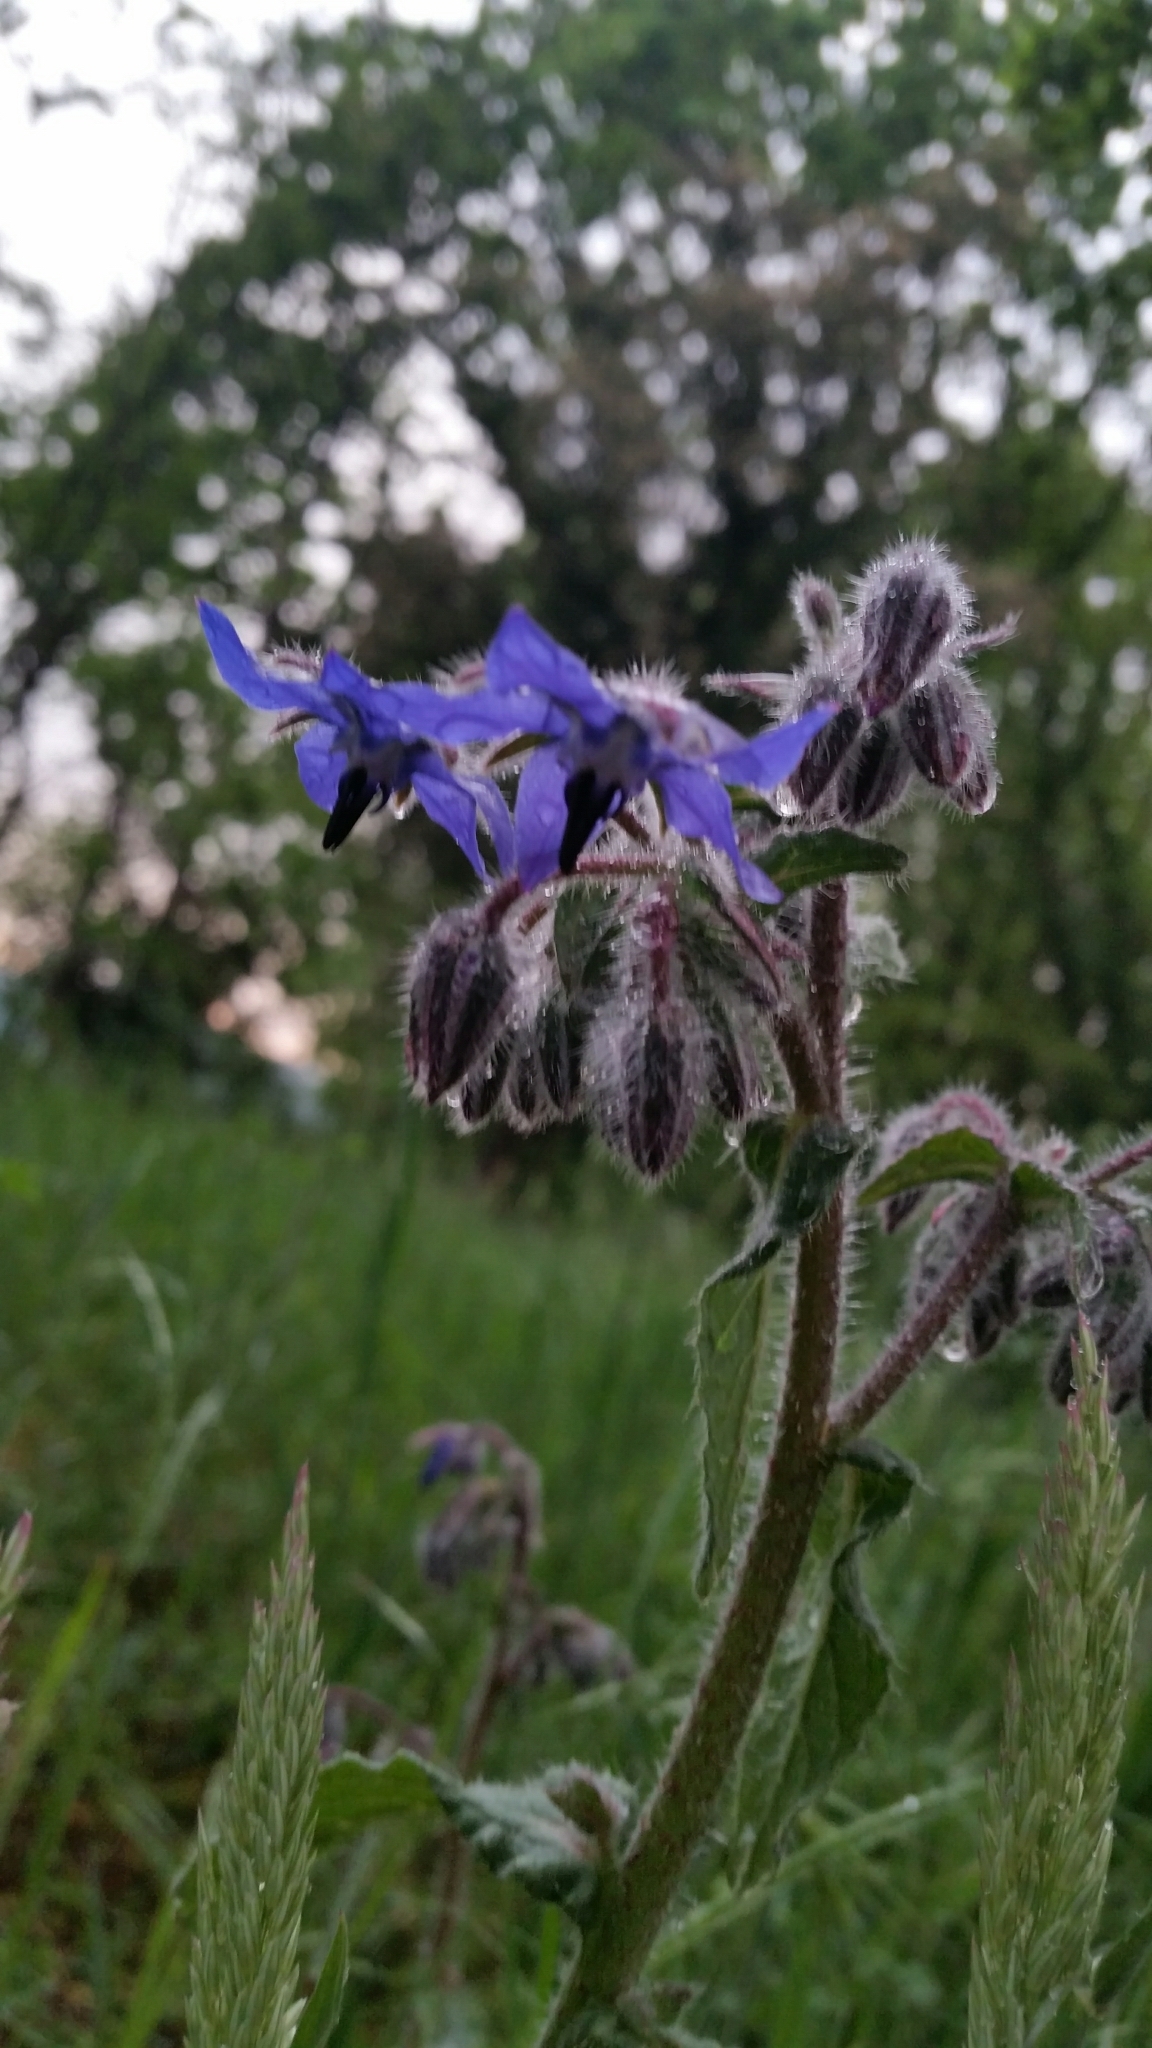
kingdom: Plantae
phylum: Tracheophyta
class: Magnoliopsida
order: Boraginales
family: Boraginaceae
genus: Borago
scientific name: Borago officinalis
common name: Borage
